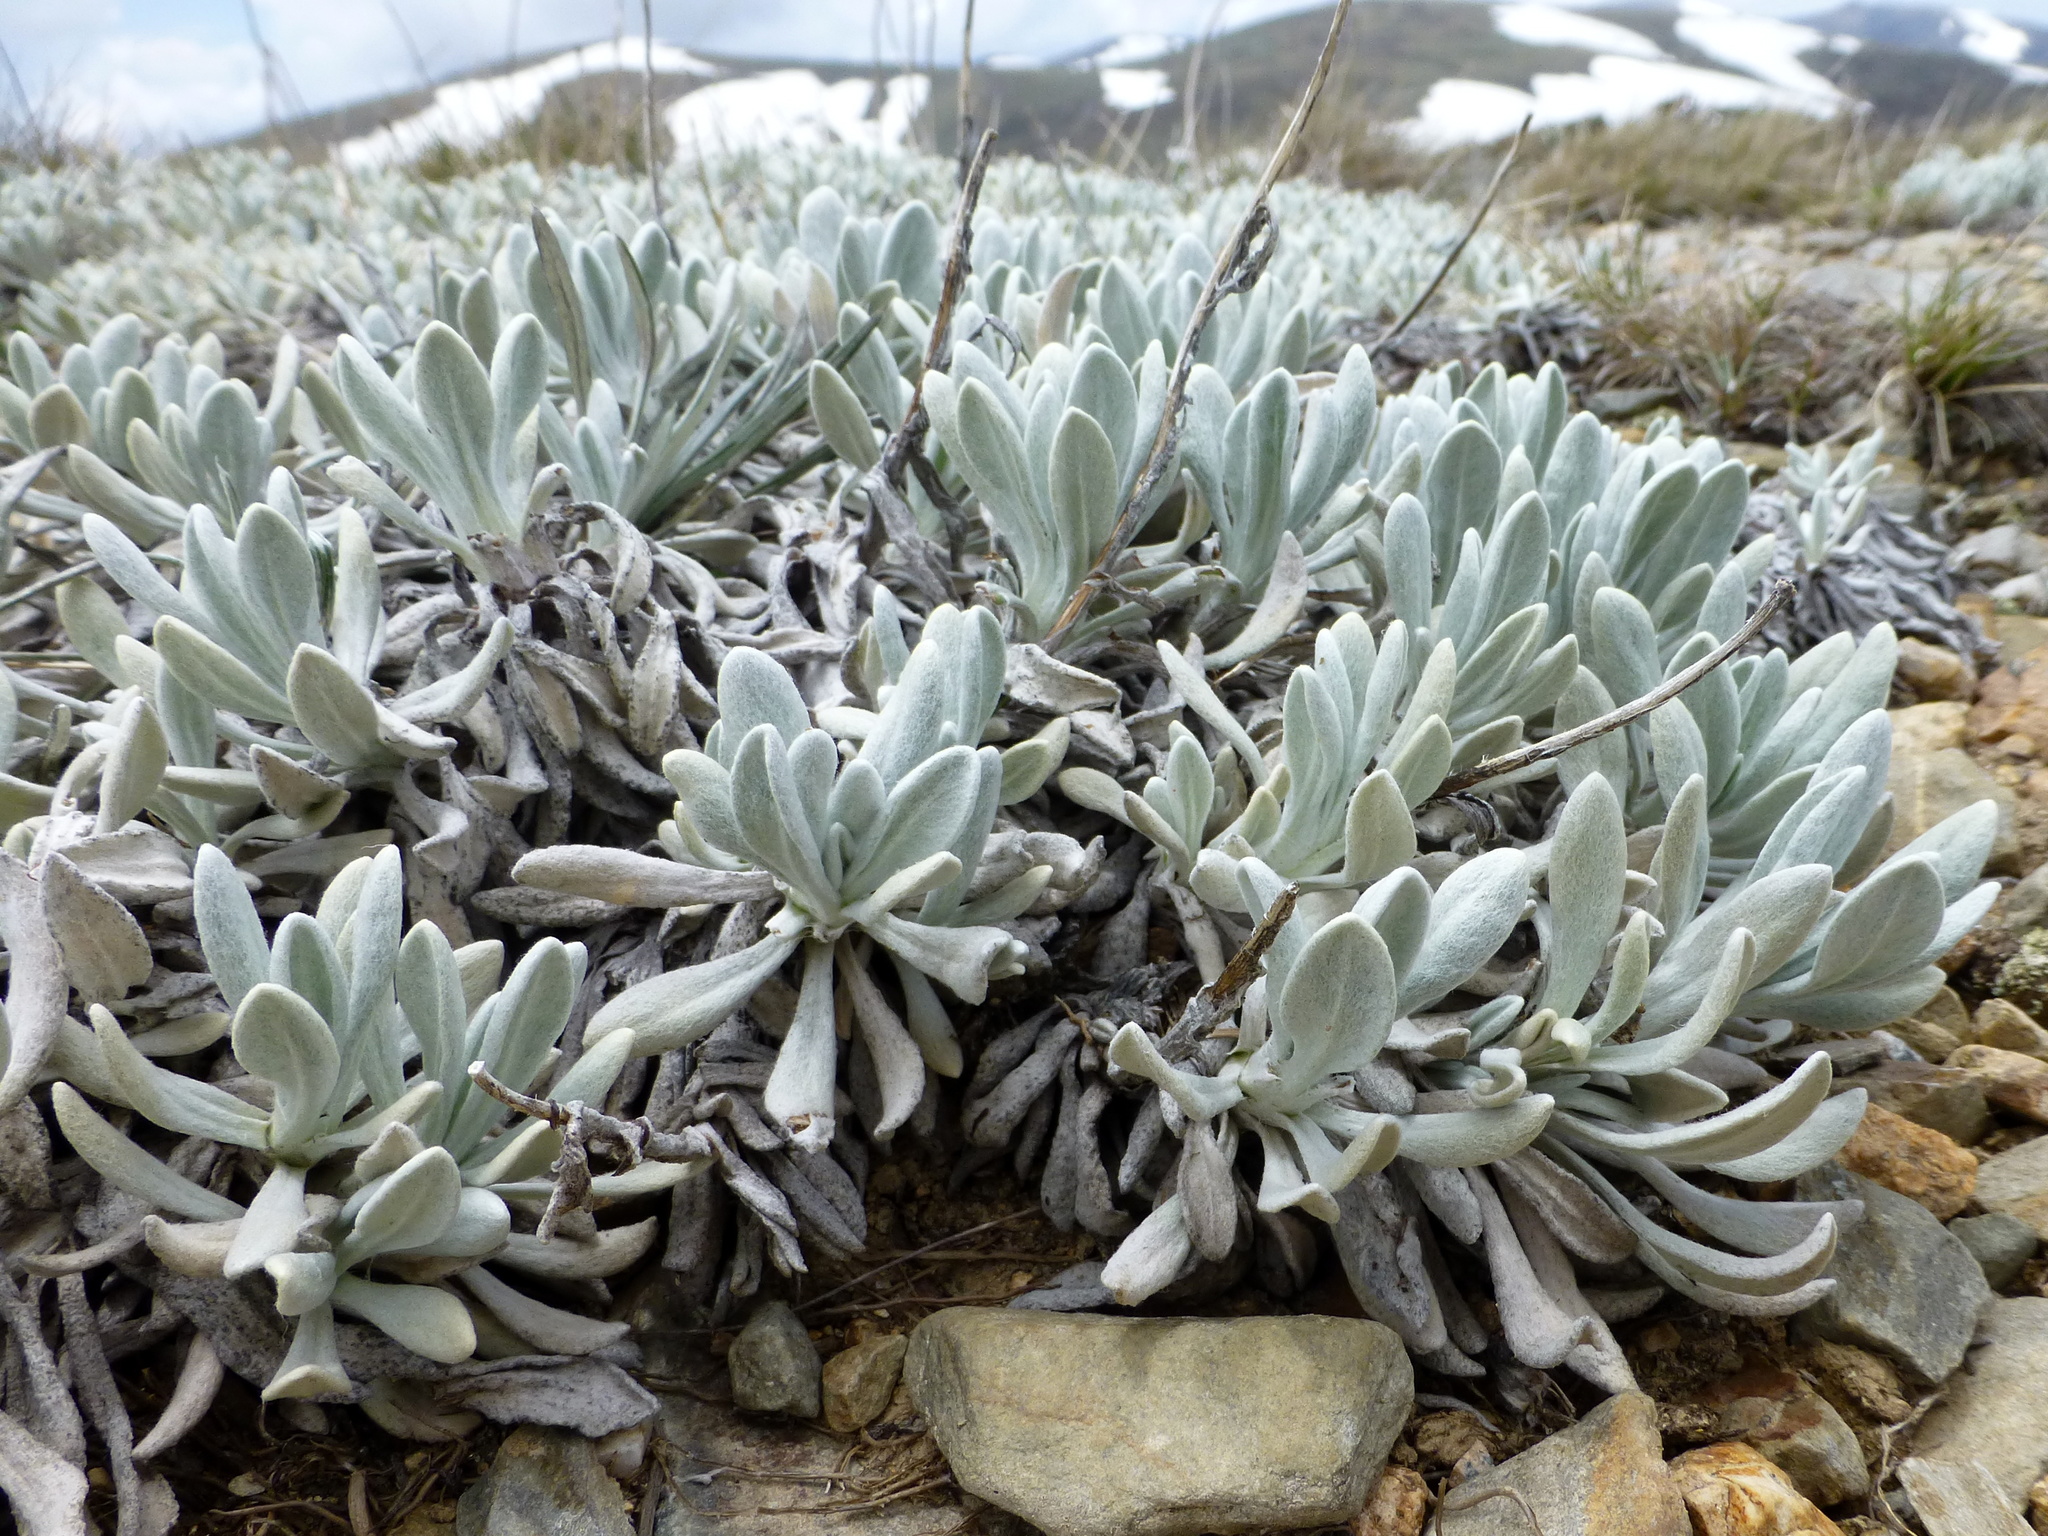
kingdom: Plantae
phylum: Tracheophyta
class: Magnoliopsida
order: Asterales
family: Asteraceae
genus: Leucochrysum
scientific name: Leucochrysum alpinum
